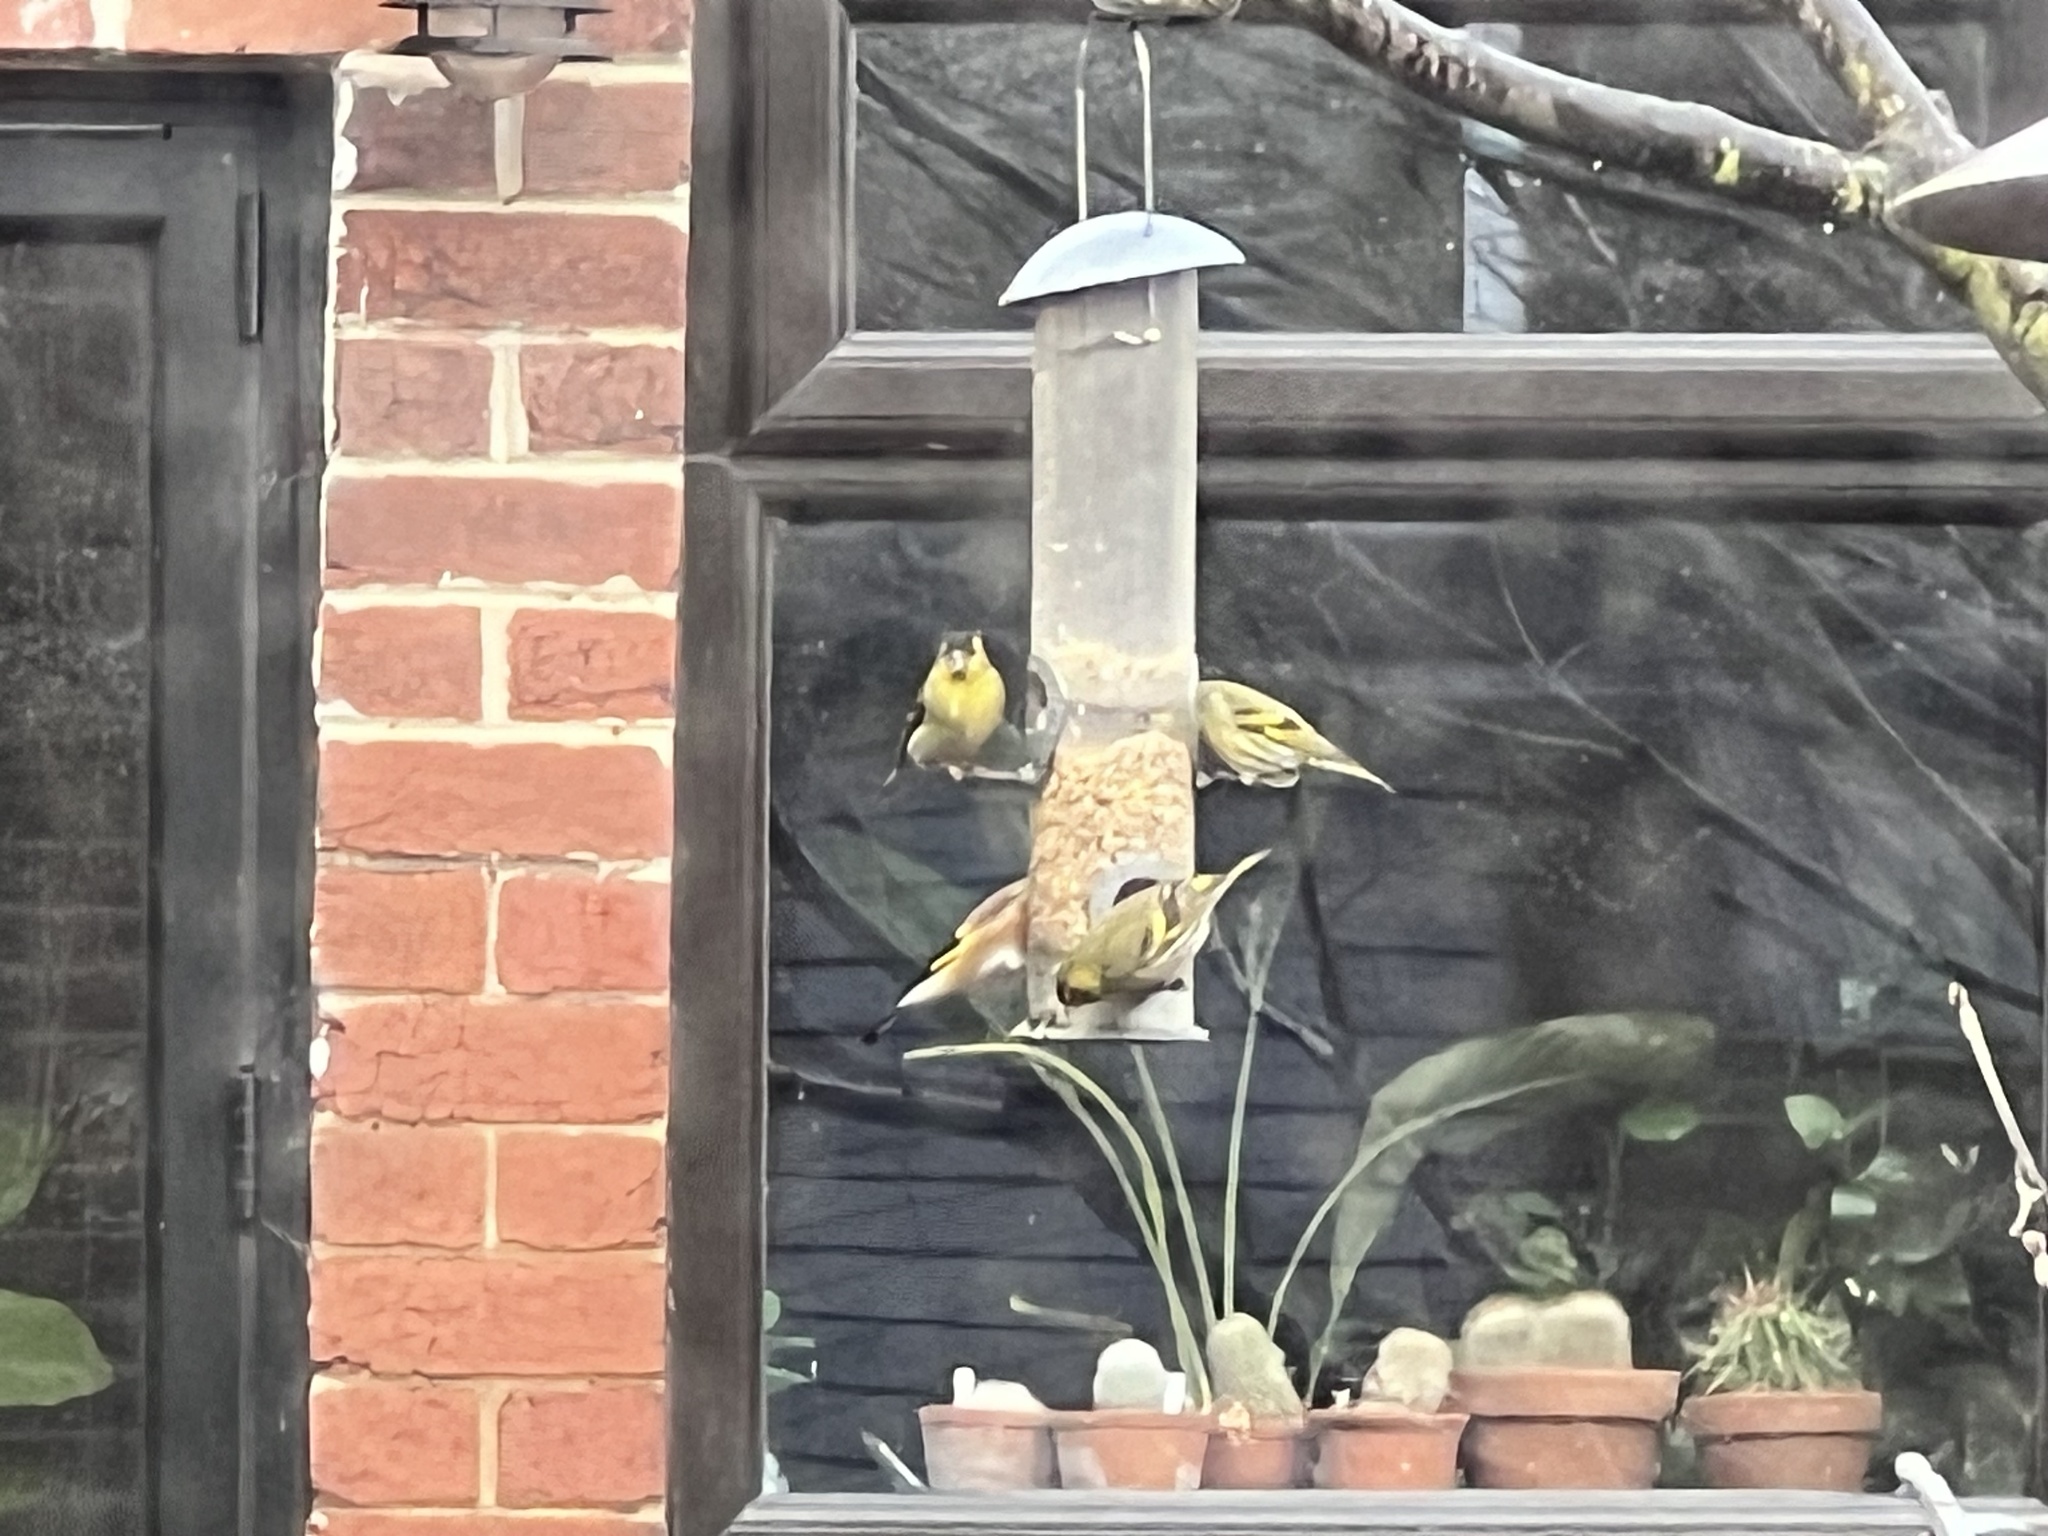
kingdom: Animalia
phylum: Chordata
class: Aves
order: Passeriformes
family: Fringillidae
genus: Spinus
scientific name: Spinus spinus
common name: Eurasian siskin
